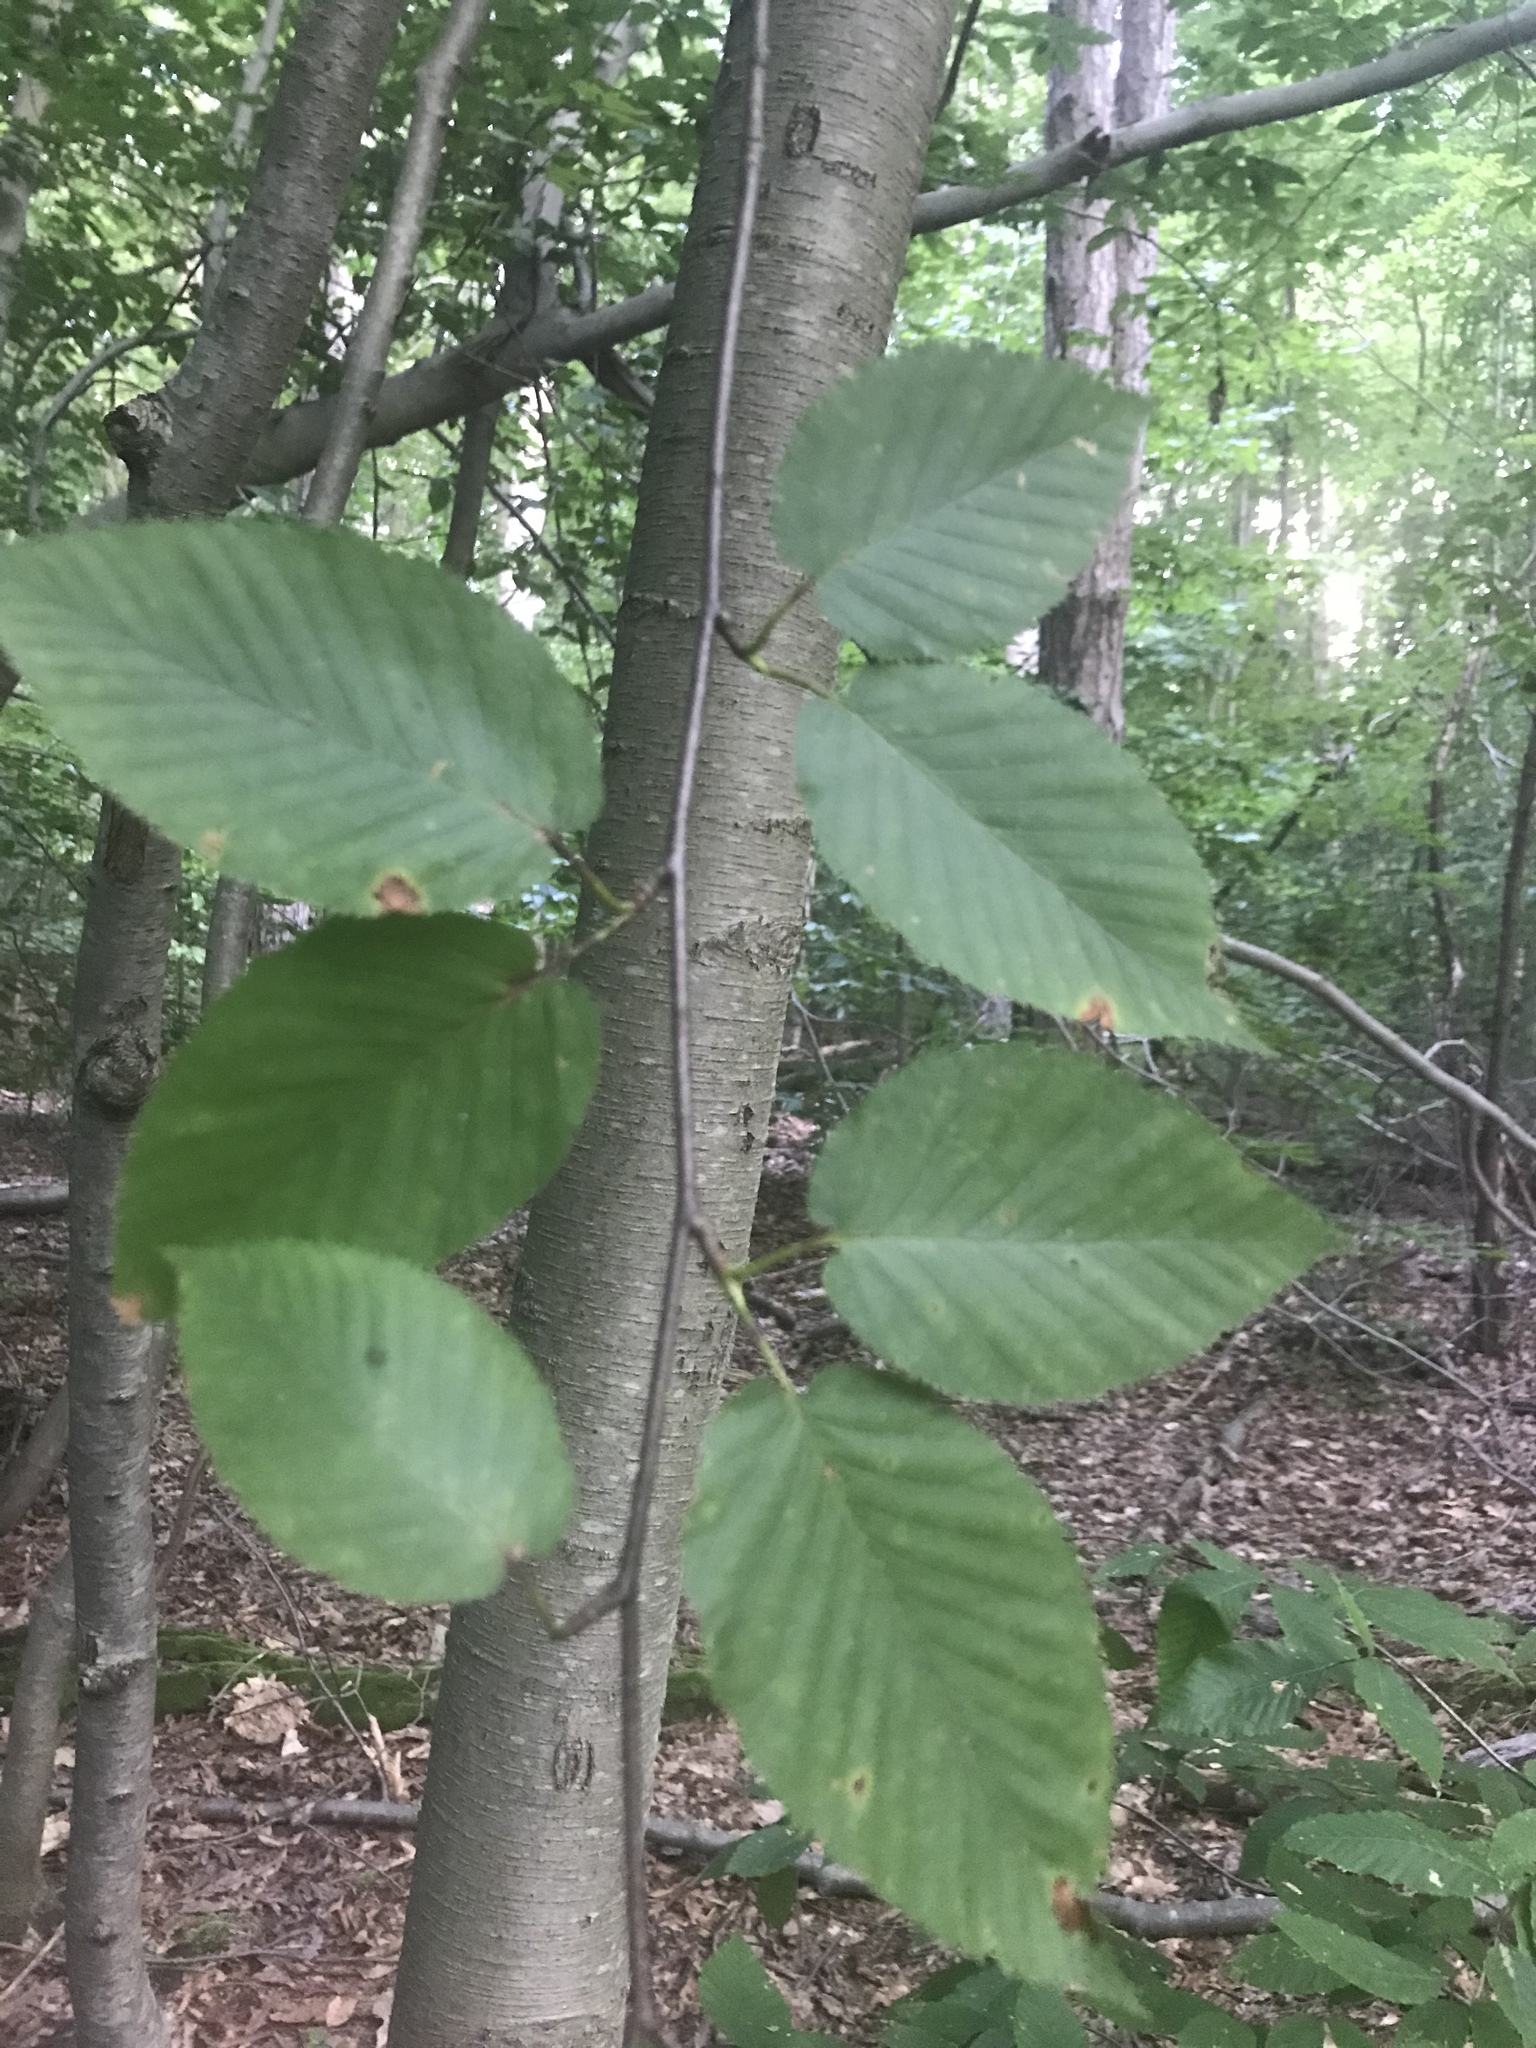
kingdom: Plantae
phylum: Tracheophyta
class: Magnoliopsida
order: Fagales
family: Betulaceae
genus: Betula
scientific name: Betula lenta
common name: Black birch
